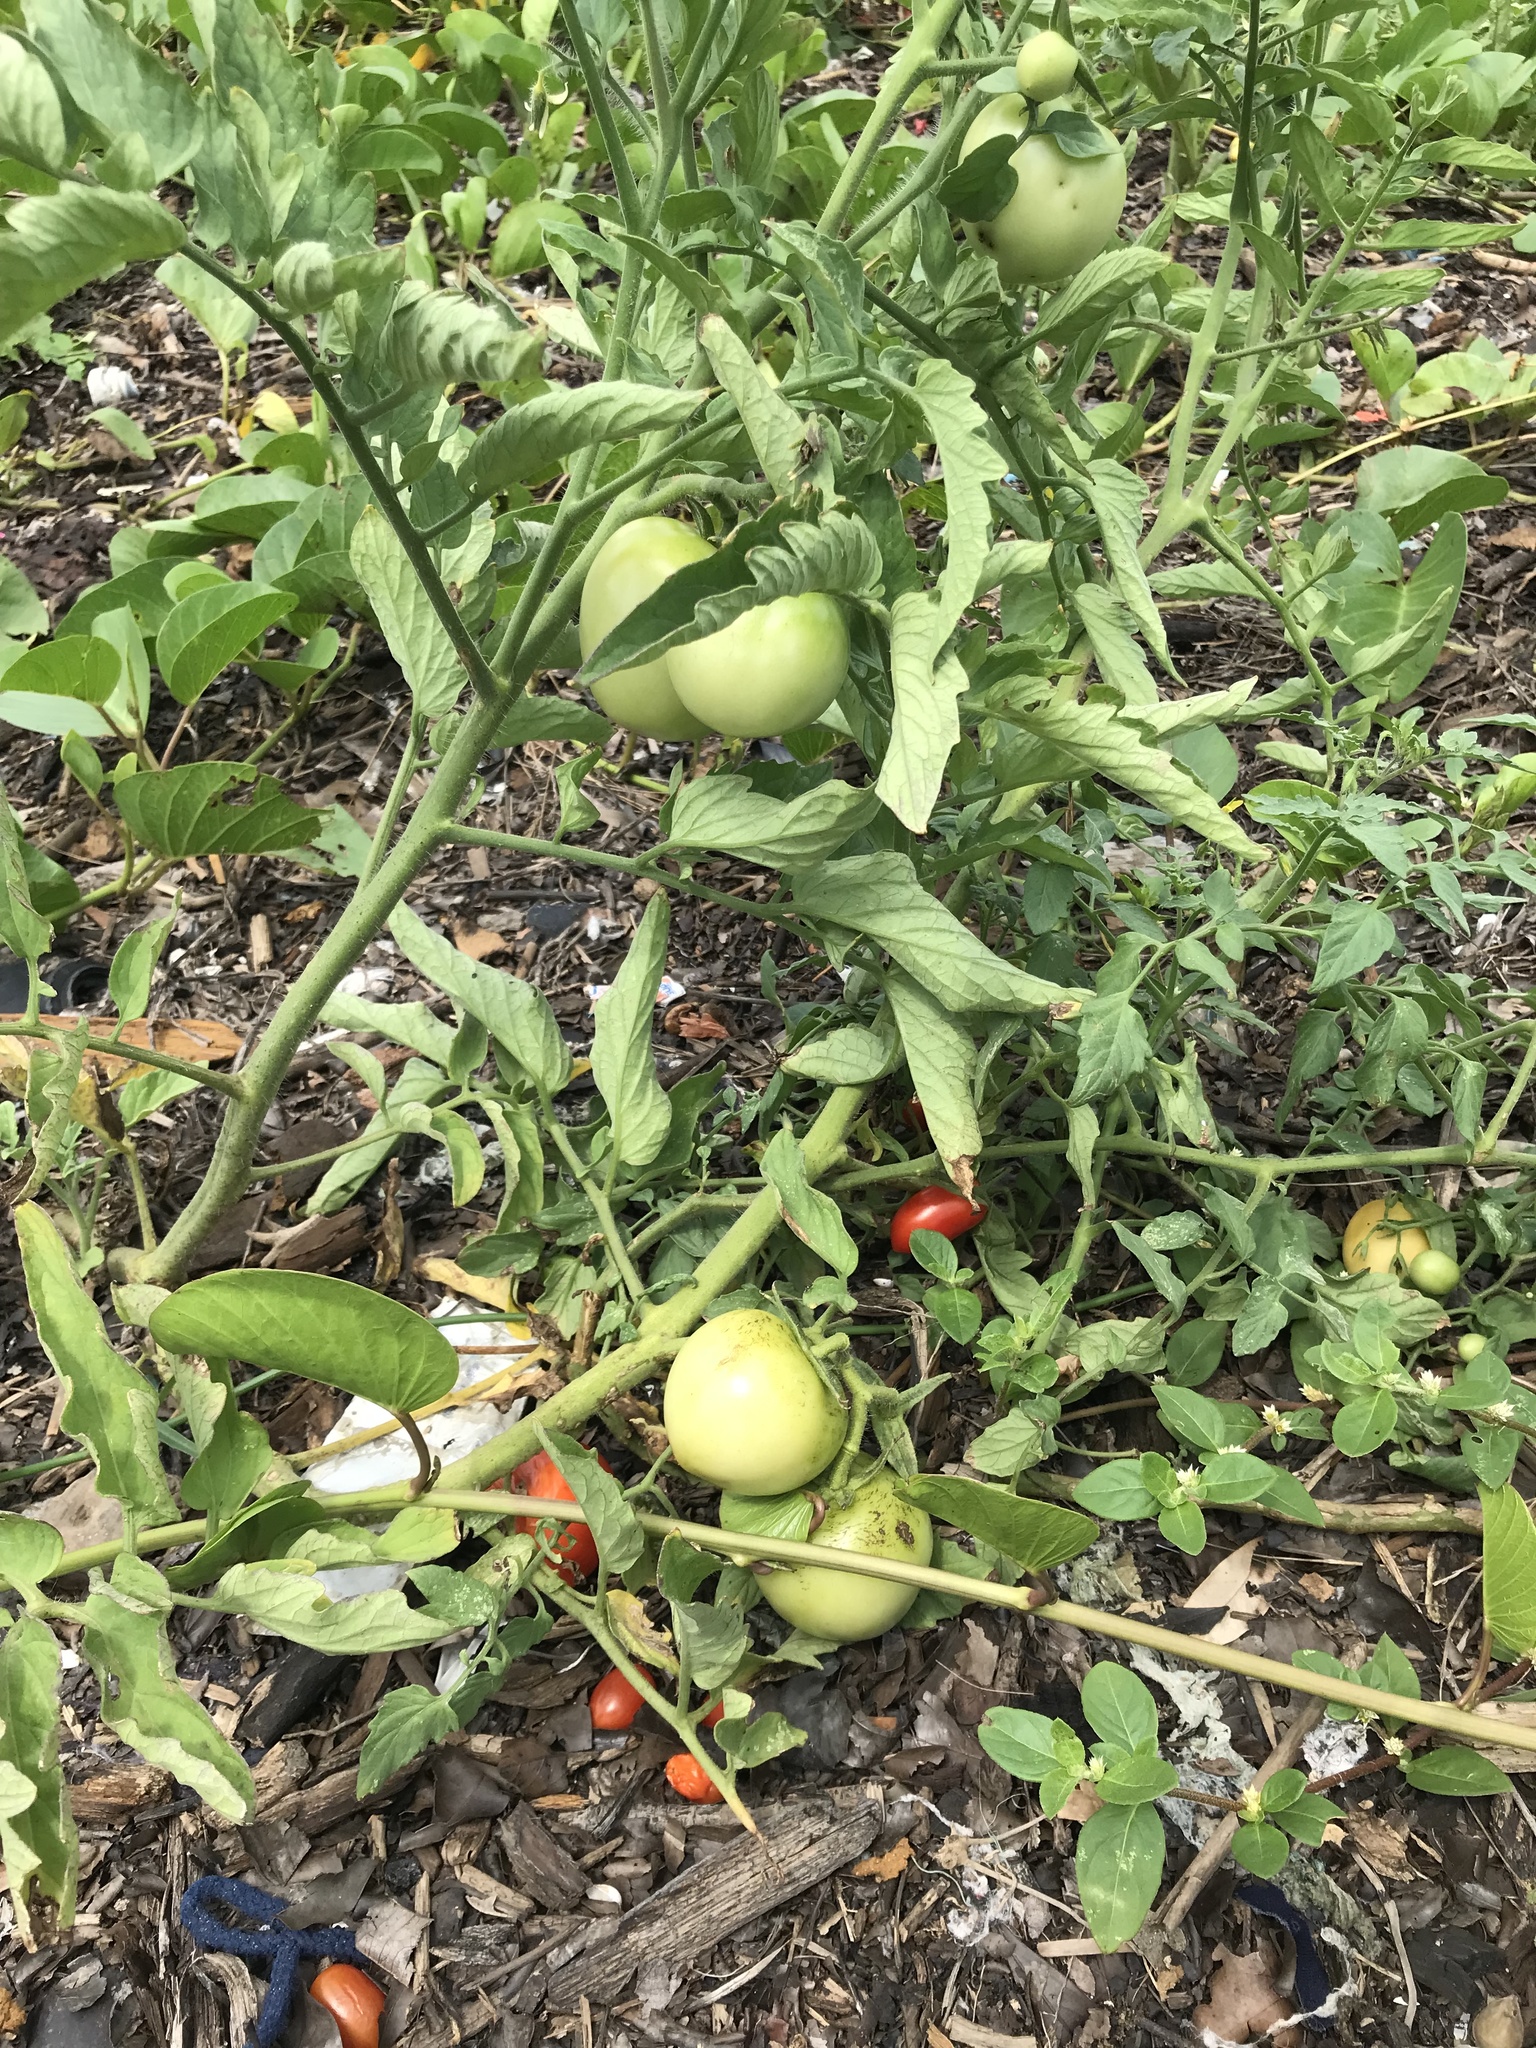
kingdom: Plantae
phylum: Tracheophyta
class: Magnoliopsida
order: Solanales
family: Solanaceae
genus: Solanum
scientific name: Solanum lycopersicum
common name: Garden tomato
